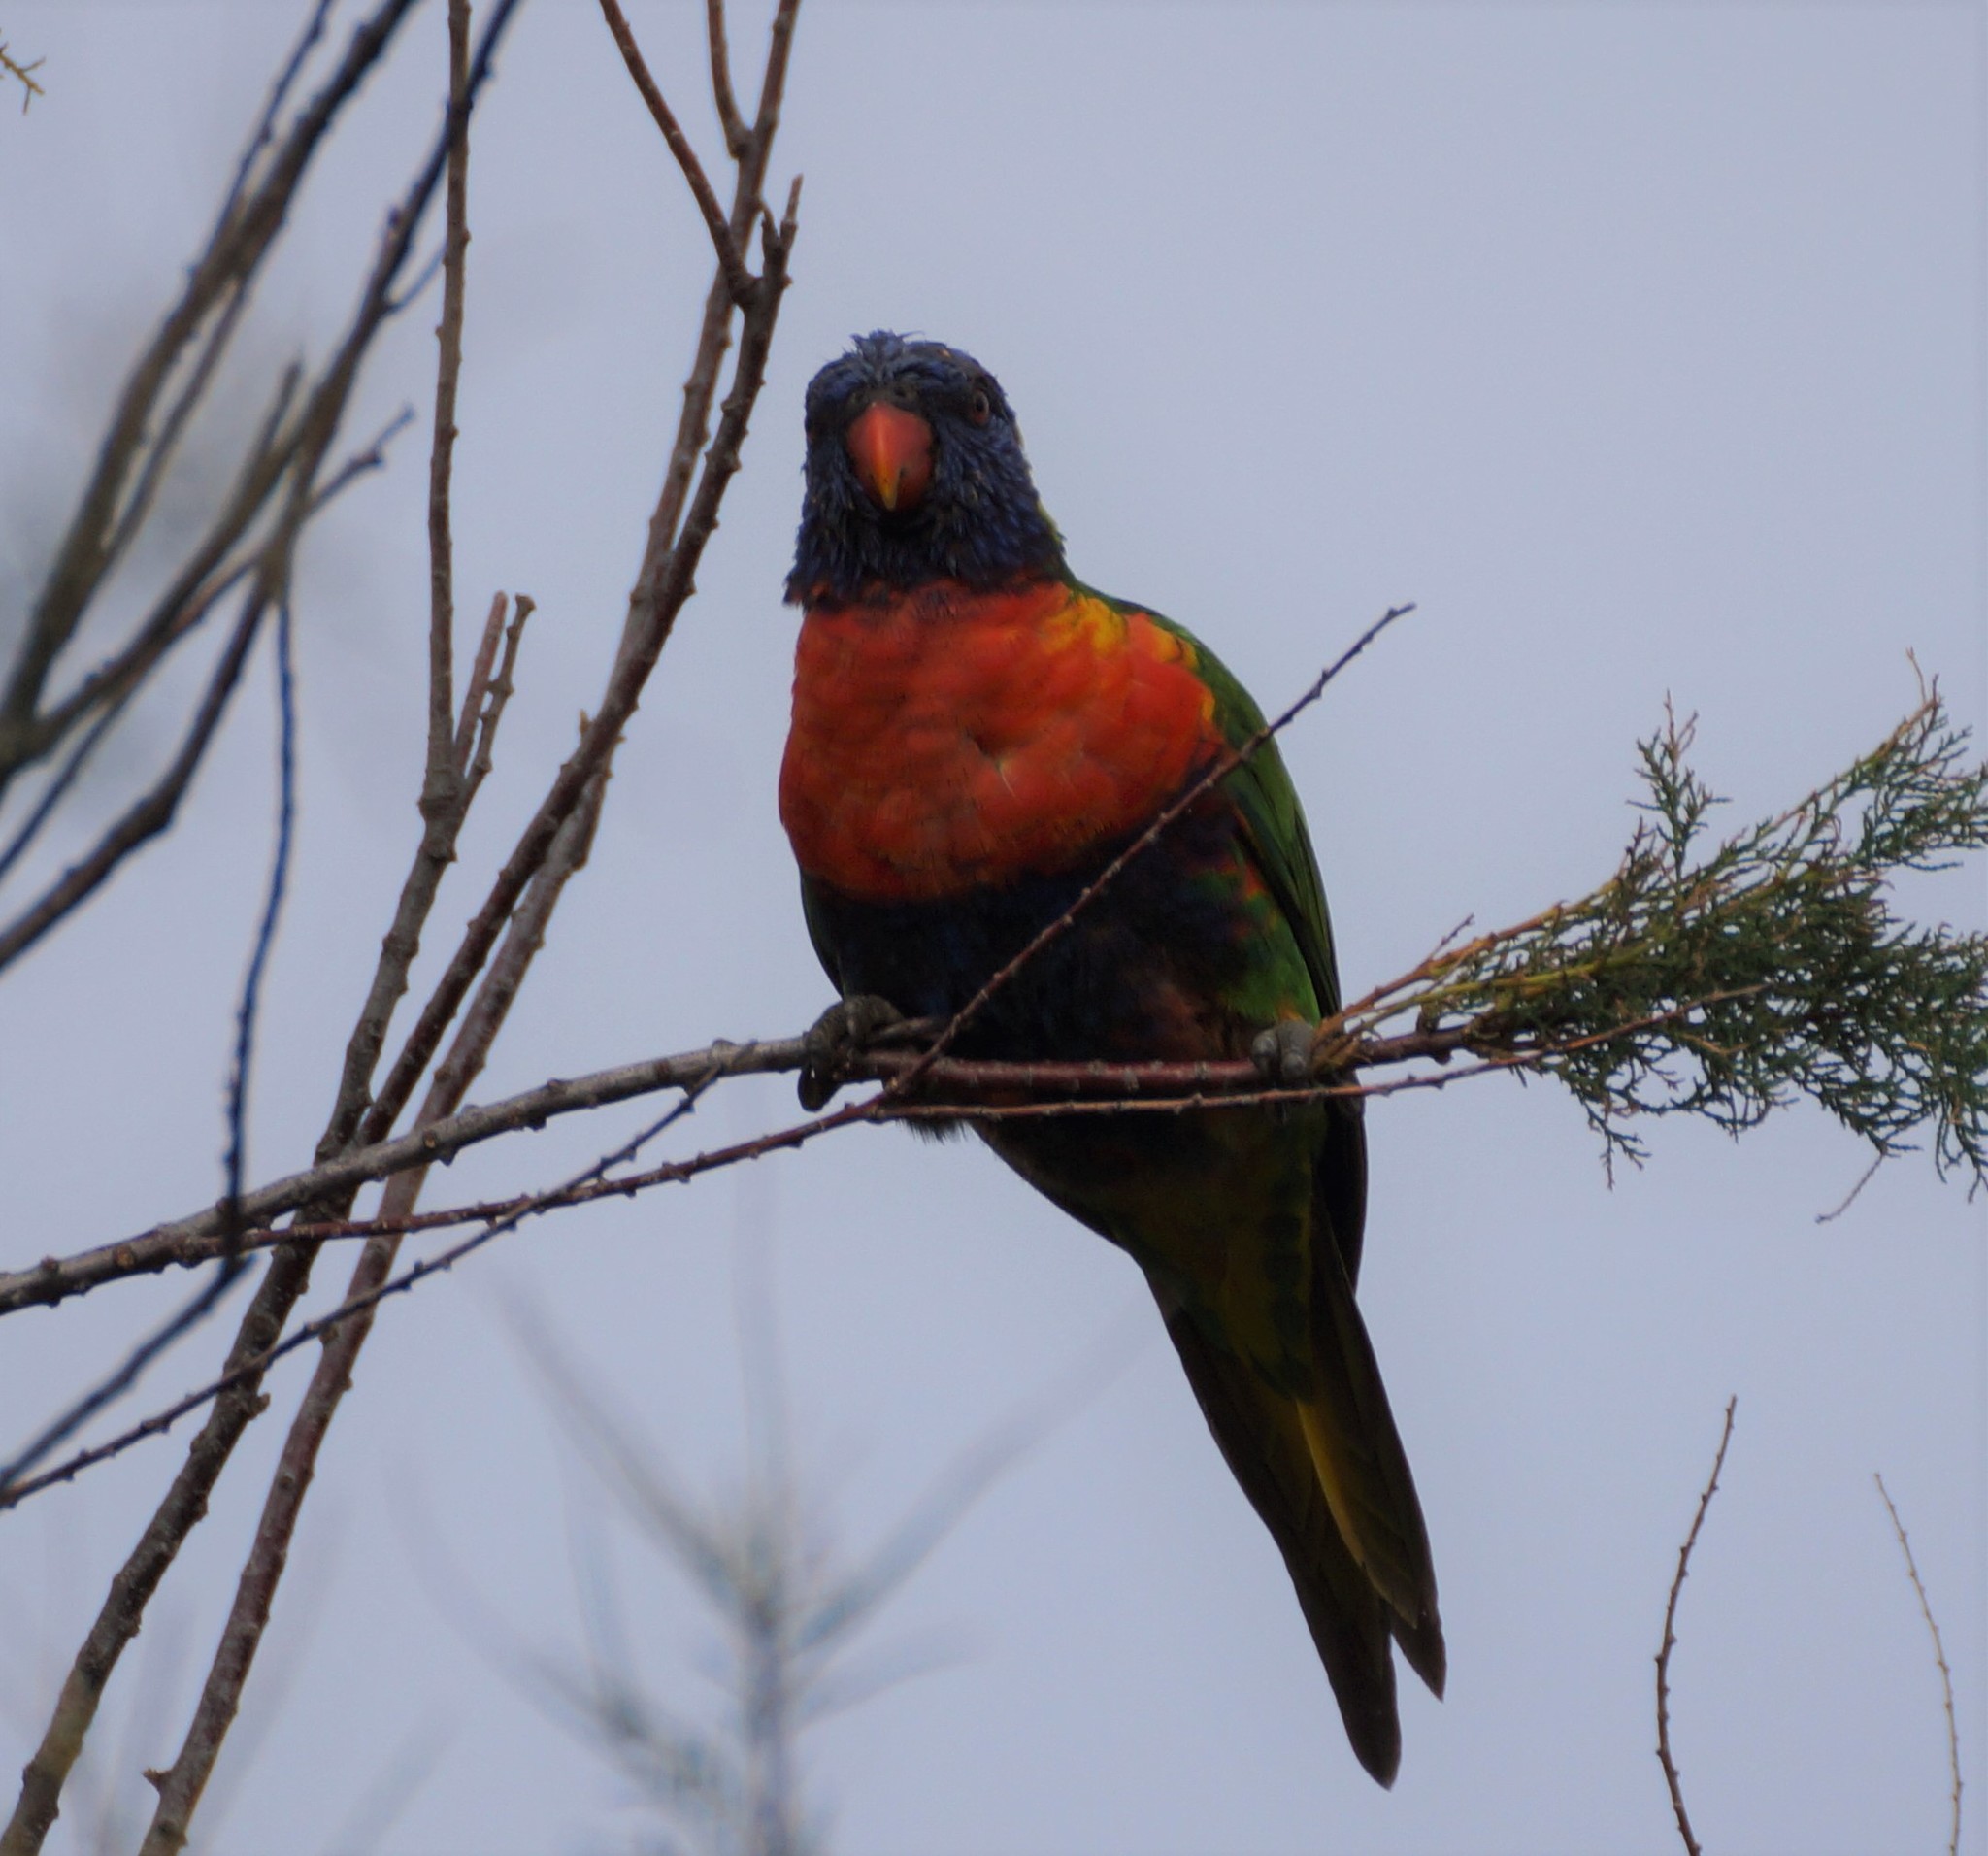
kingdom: Animalia
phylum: Chordata
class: Aves
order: Psittaciformes
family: Psittacidae
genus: Trichoglossus
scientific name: Trichoglossus haematodus
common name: Coconut lorikeet
